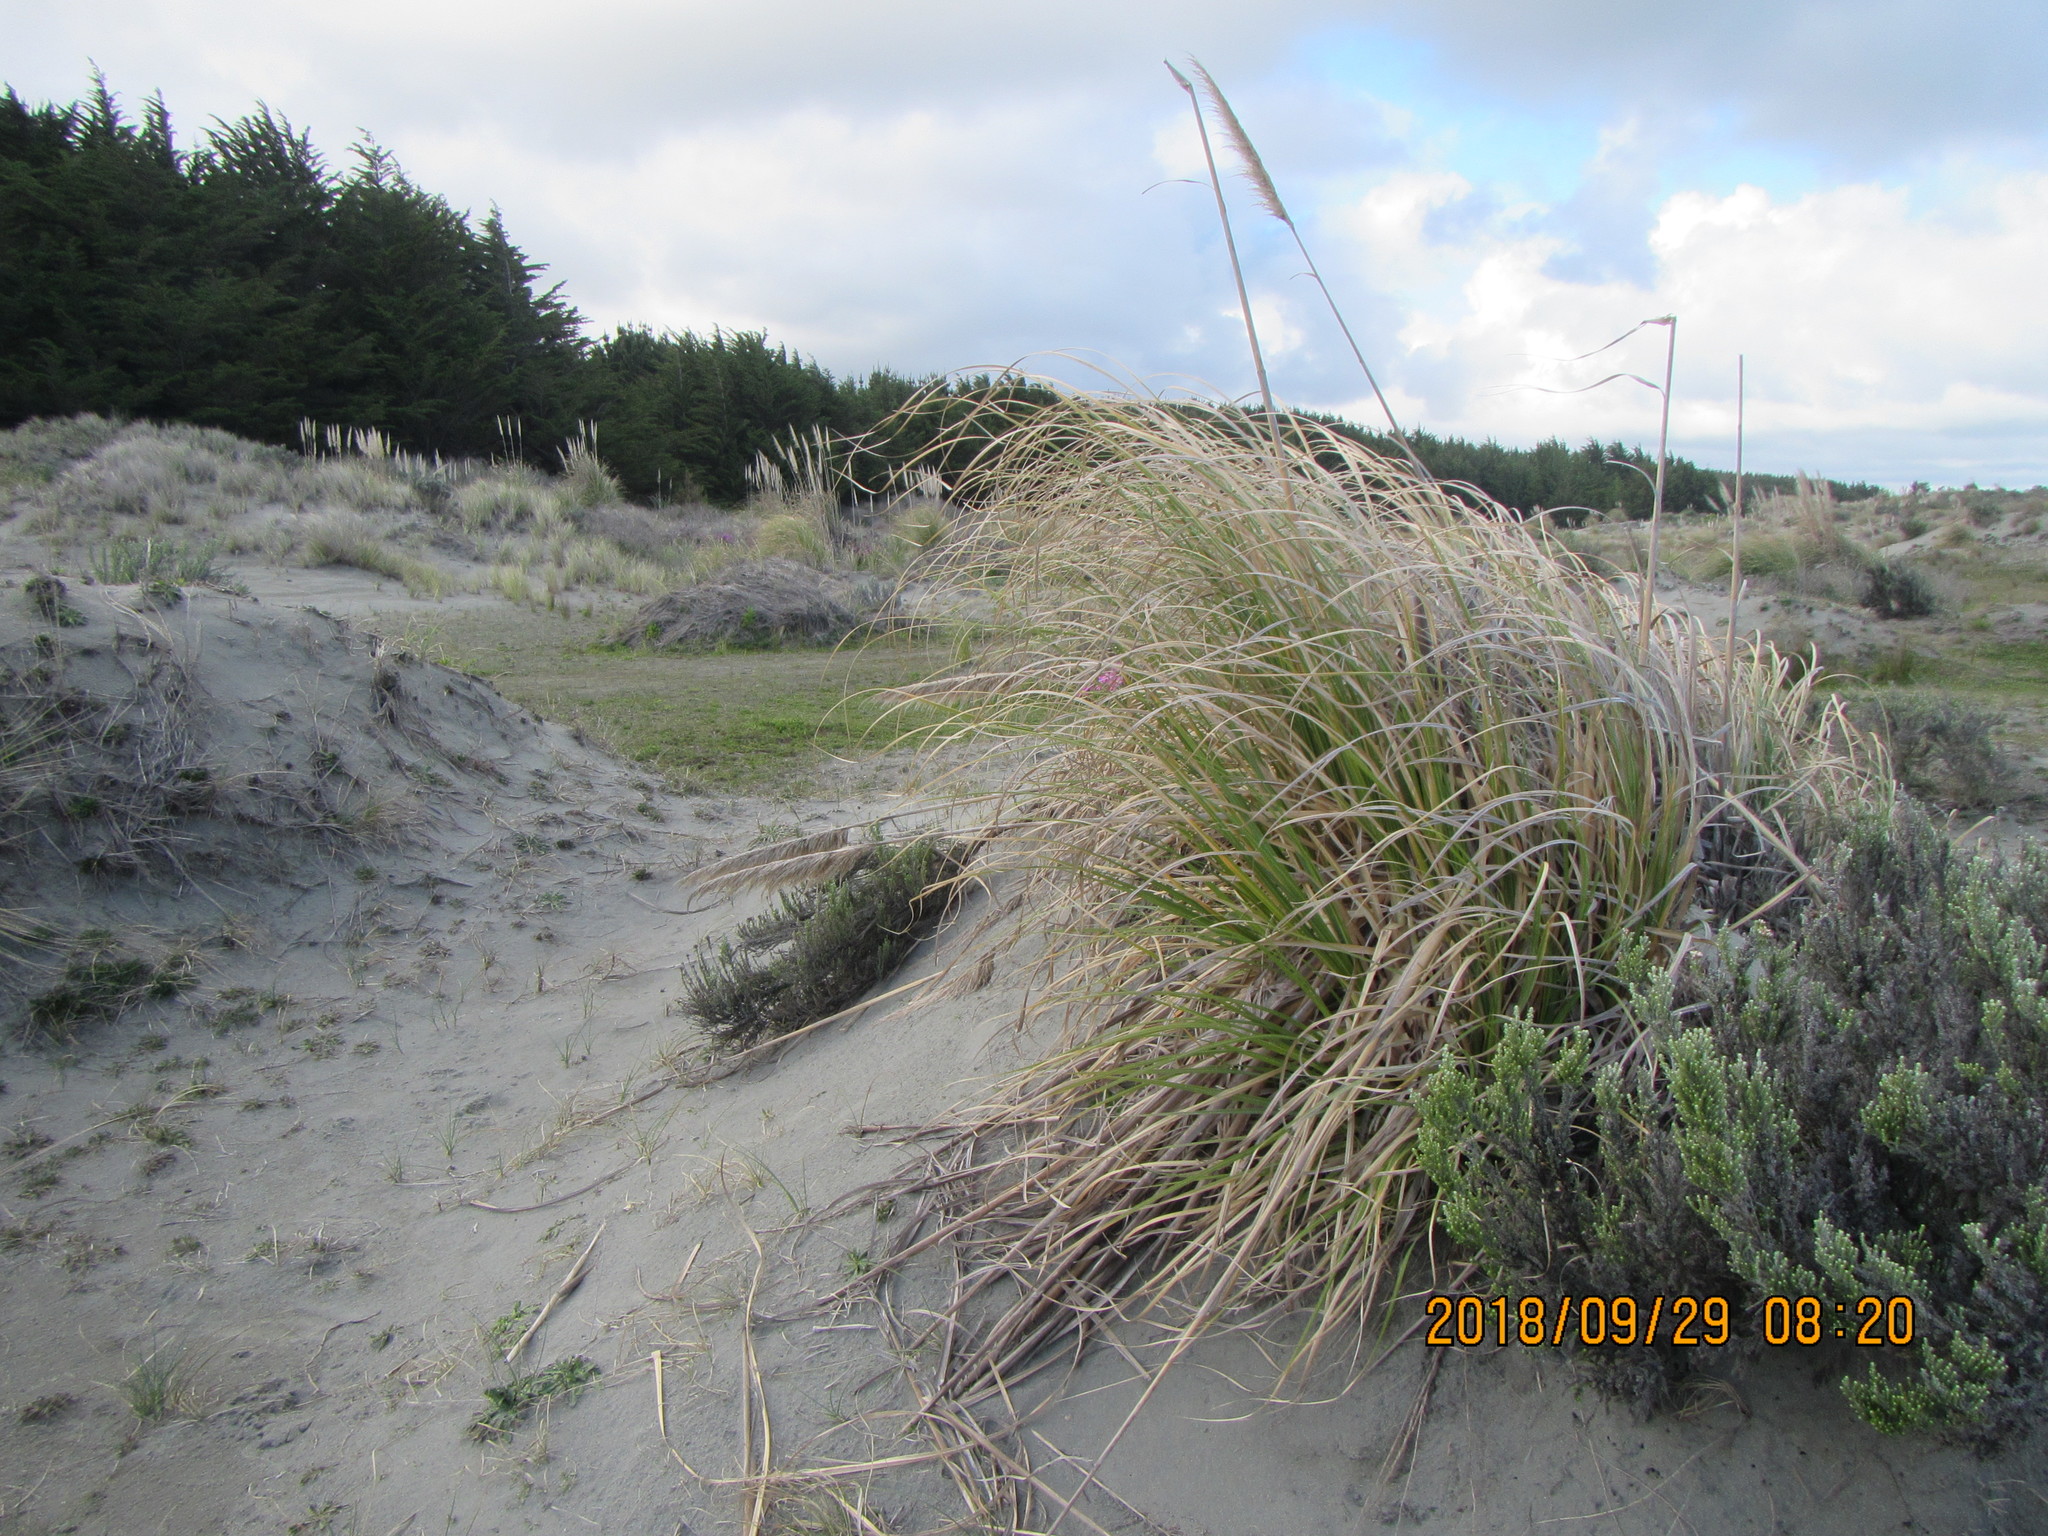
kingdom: Plantae
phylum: Tracheophyta
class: Liliopsida
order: Poales
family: Poaceae
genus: Cortaderia
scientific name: Cortaderia selloana
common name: Uruguayan pampas grass
